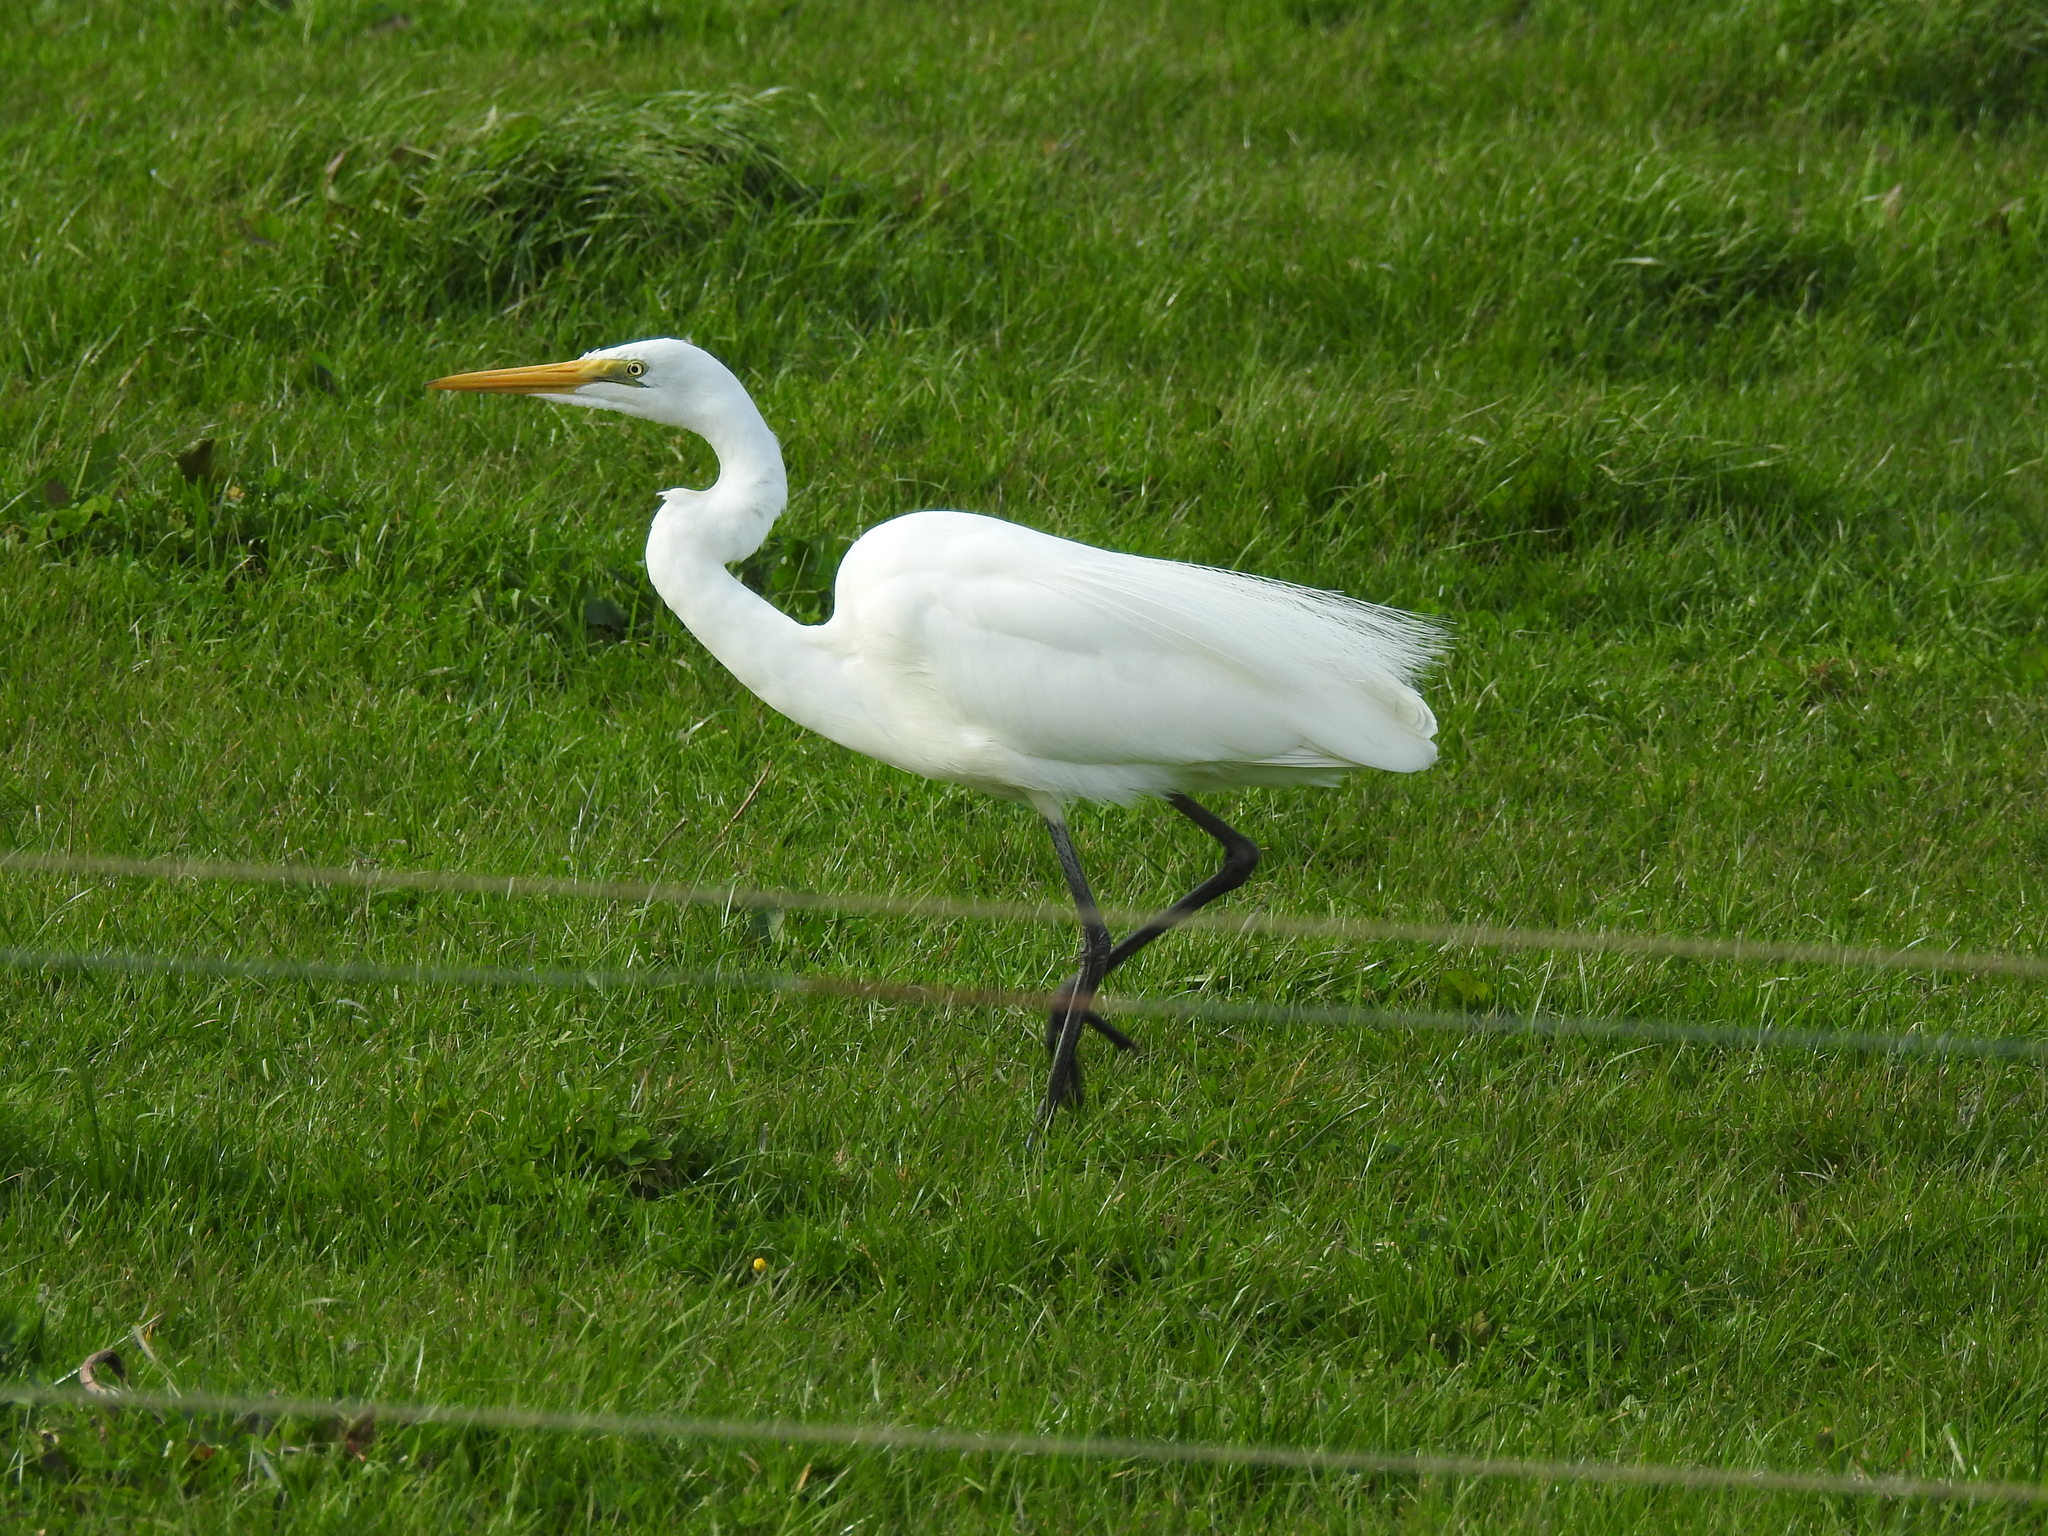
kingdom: Animalia
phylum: Chordata
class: Aves
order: Pelecaniformes
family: Ardeidae
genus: Ardea
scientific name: Ardea modesta
